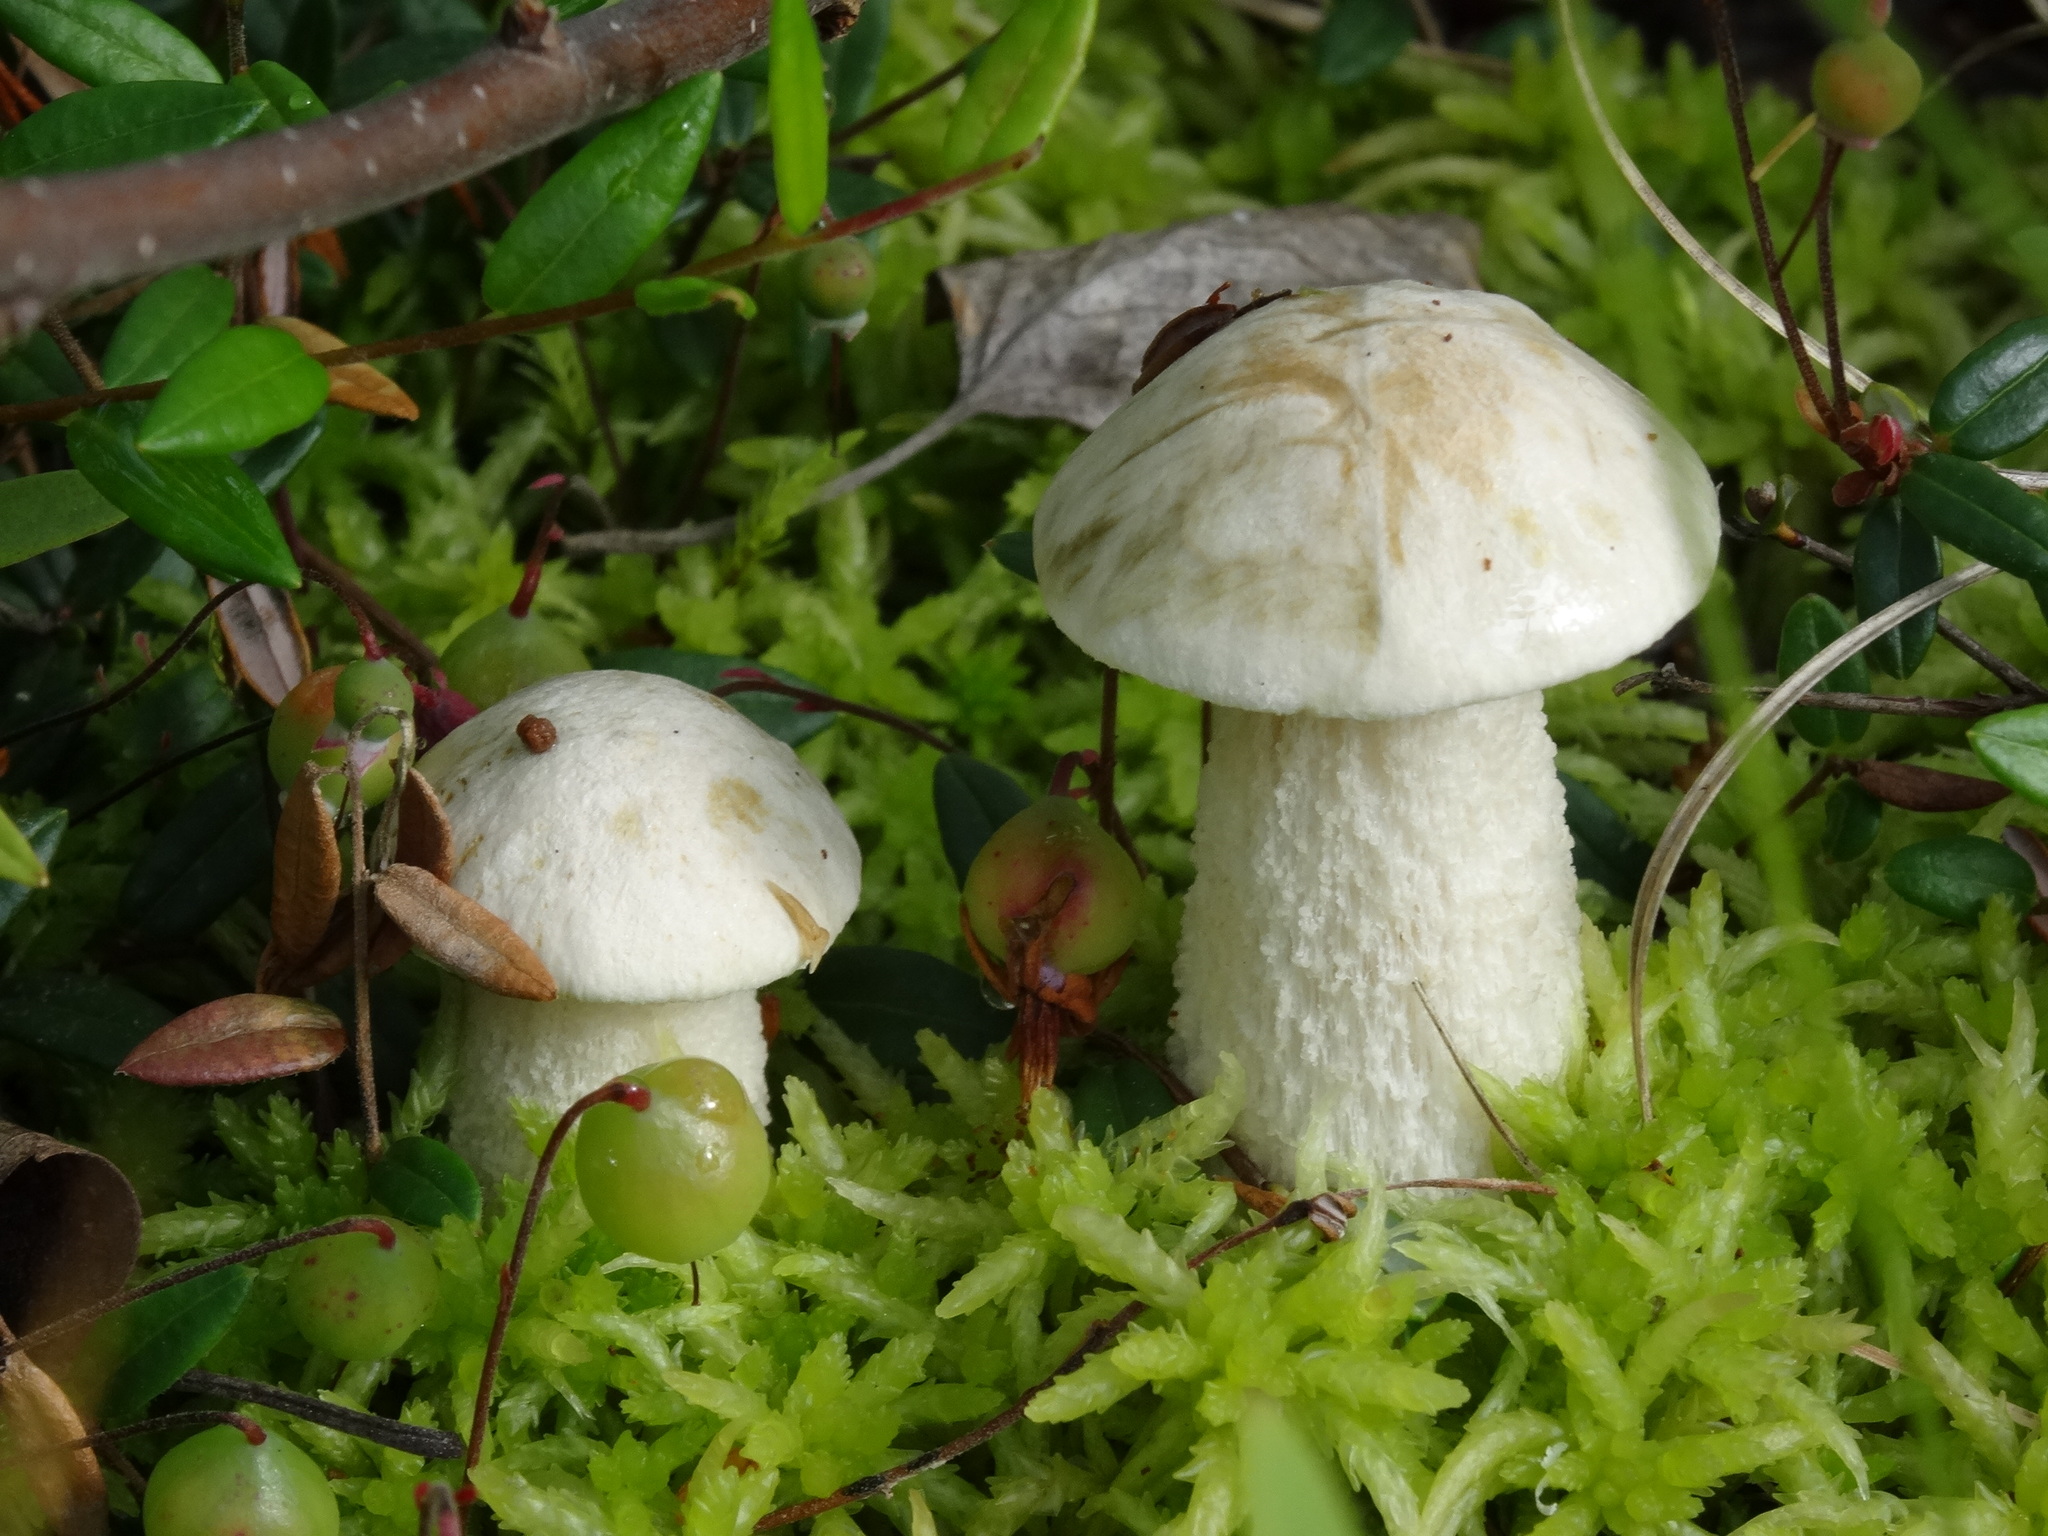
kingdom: Fungi
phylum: Basidiomycota
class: Agaricomycetes
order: Boletales
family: Boletaceae
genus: Leccinum
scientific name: Leccinum holopus
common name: Ghost bolete
